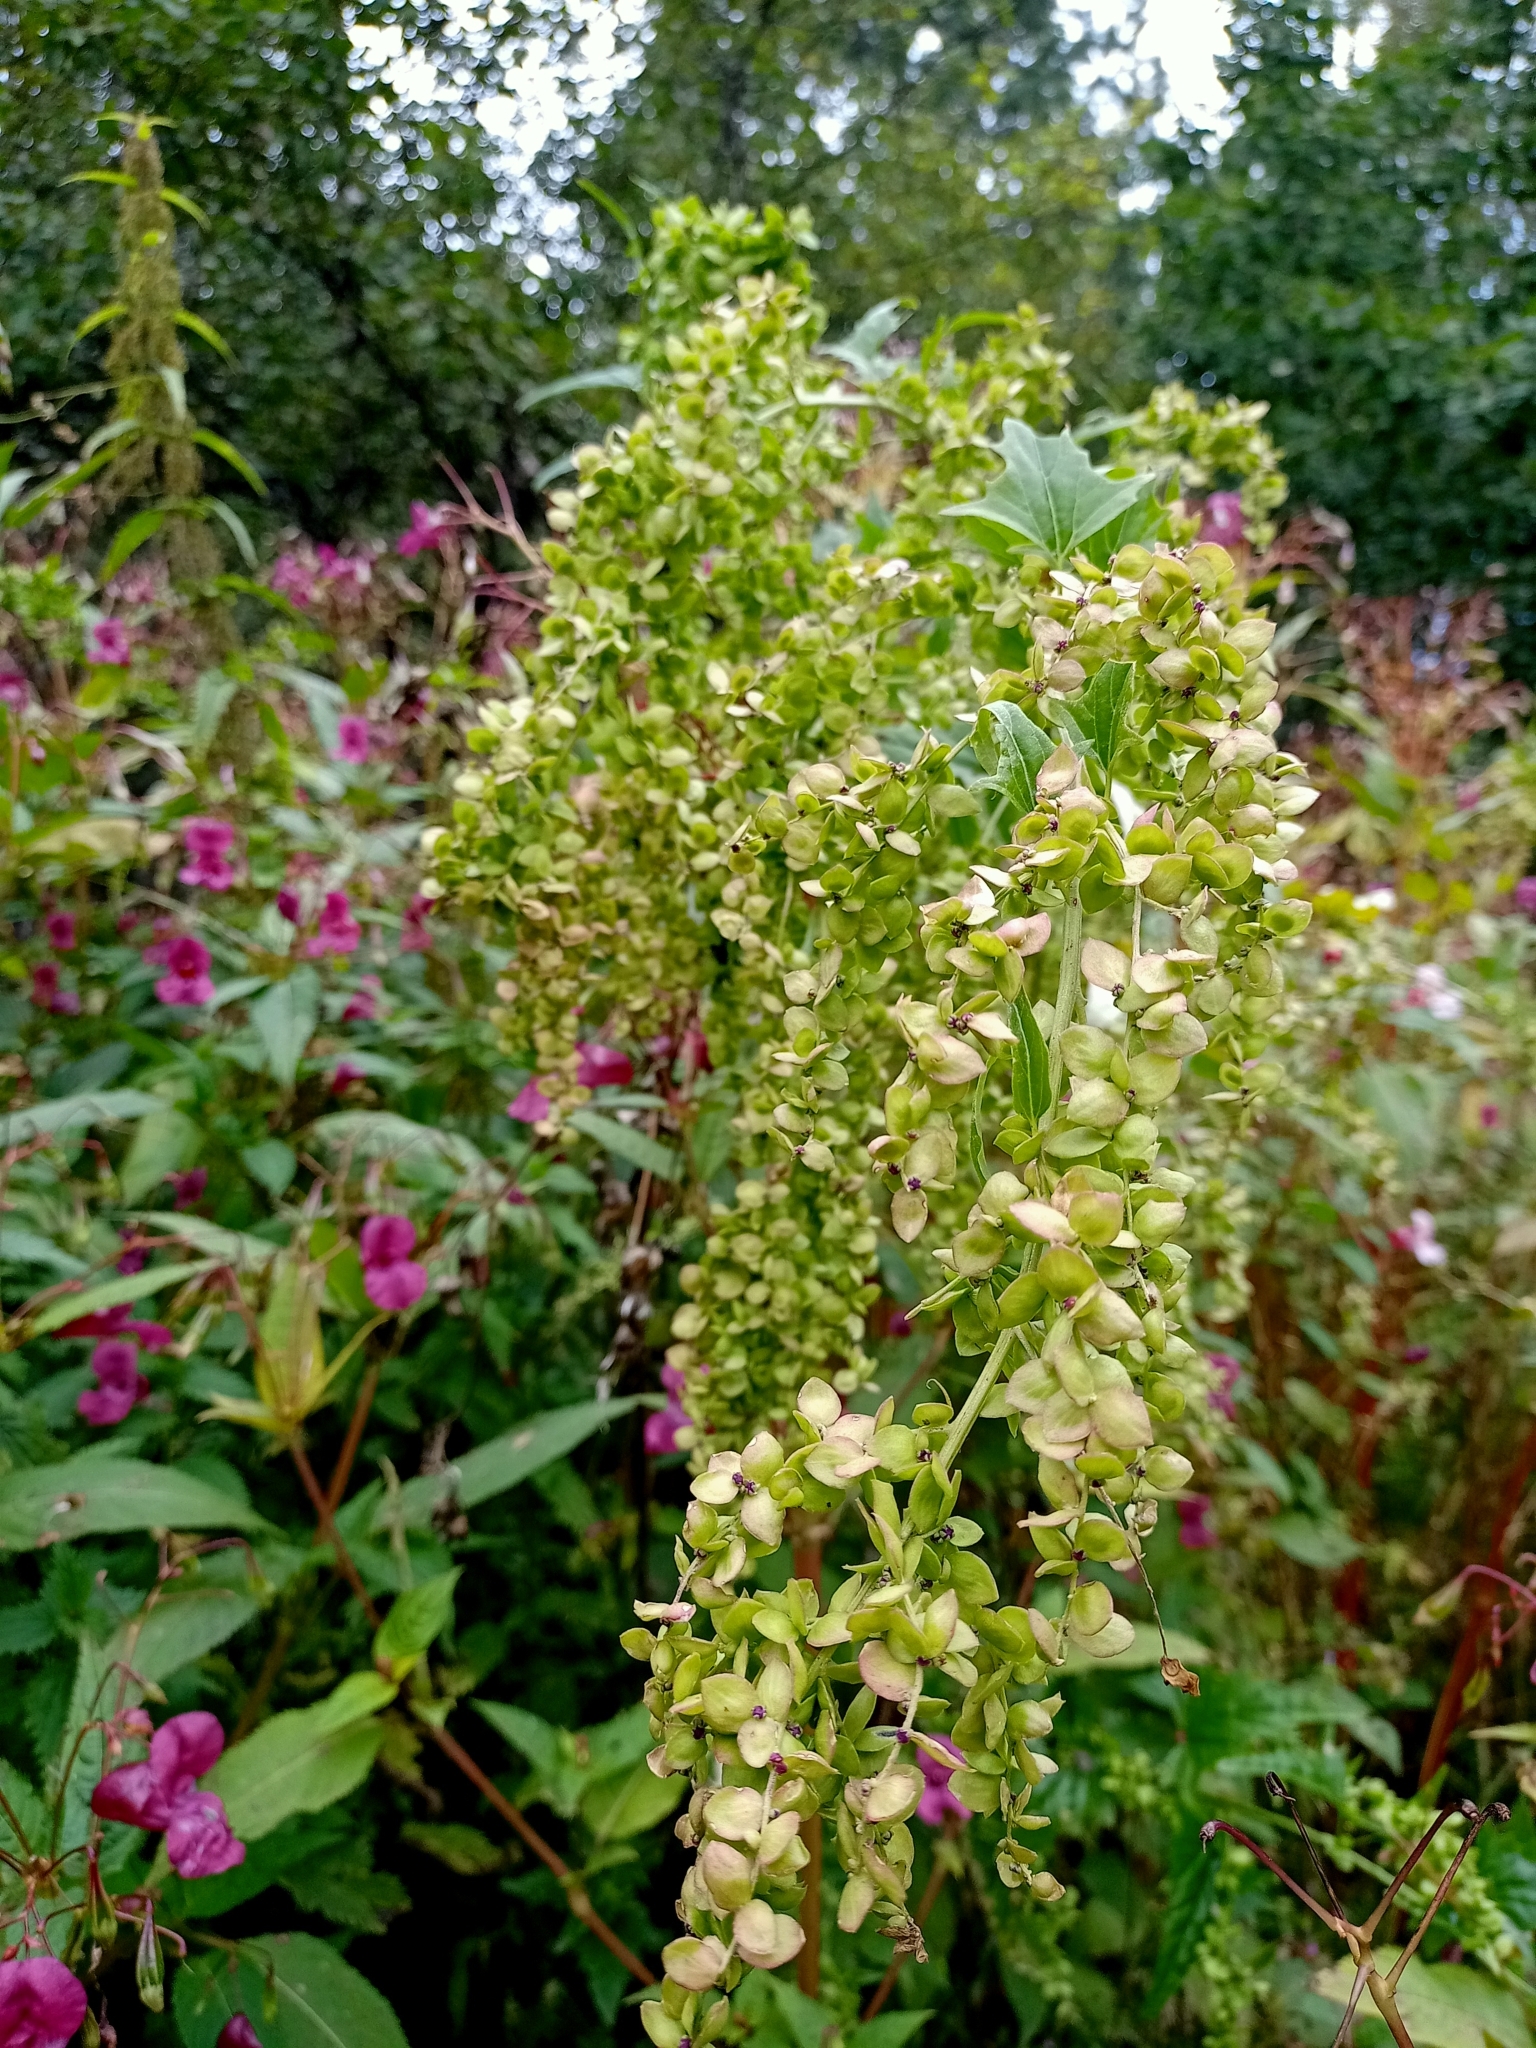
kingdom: Plantae
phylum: Tracheophyta
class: Magnoliopsida
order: Caryophyllales
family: Amaranthaceae
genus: Atriplex
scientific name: Atriplex sagittata
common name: Purple orache
